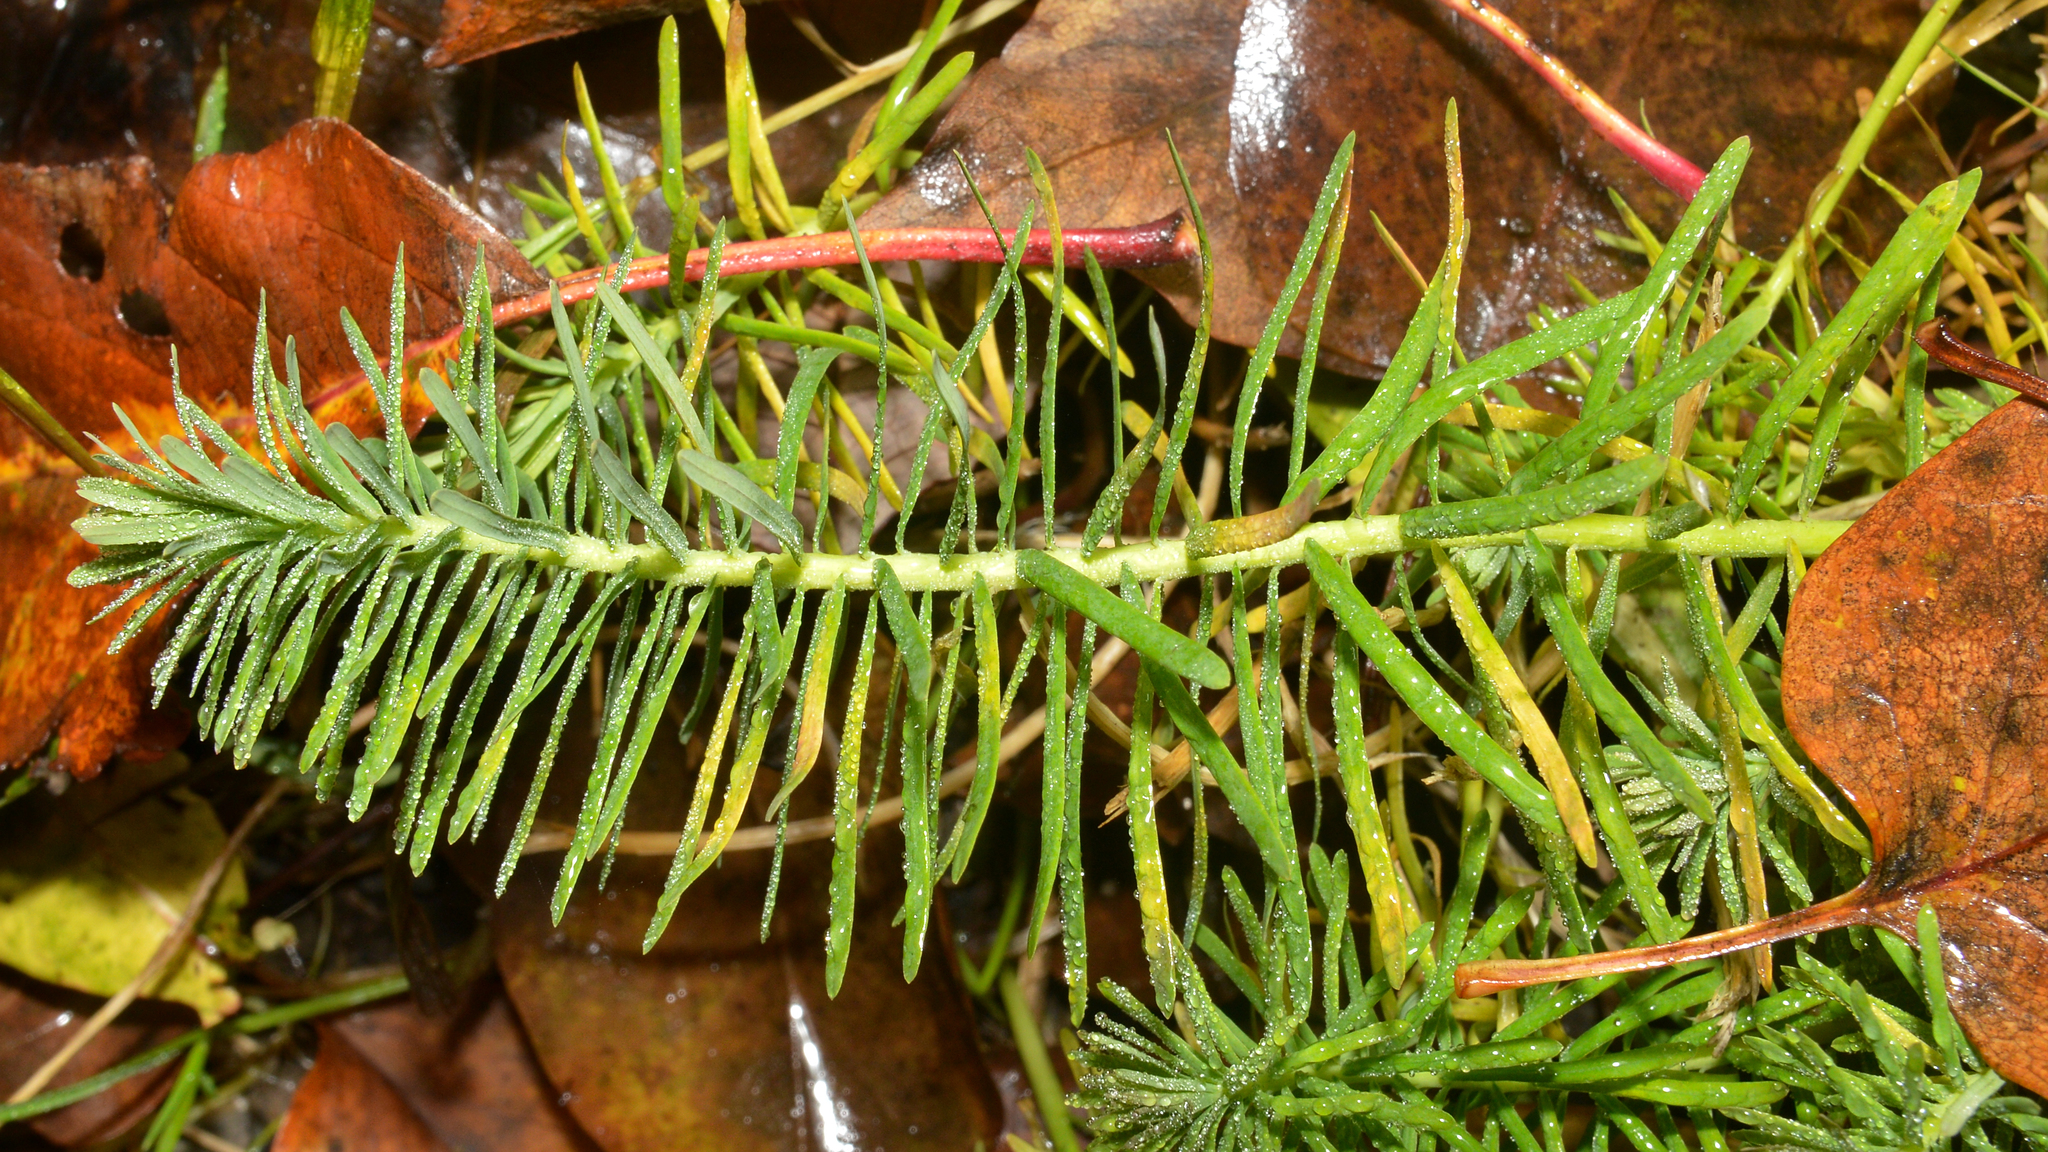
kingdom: Plantae
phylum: Tracheophyta
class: Magnoliopsida
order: Malpighiales
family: Euphorbiaceae
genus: Euphorbia
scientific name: Euphorbia cyparissias
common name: Cypress spurge
